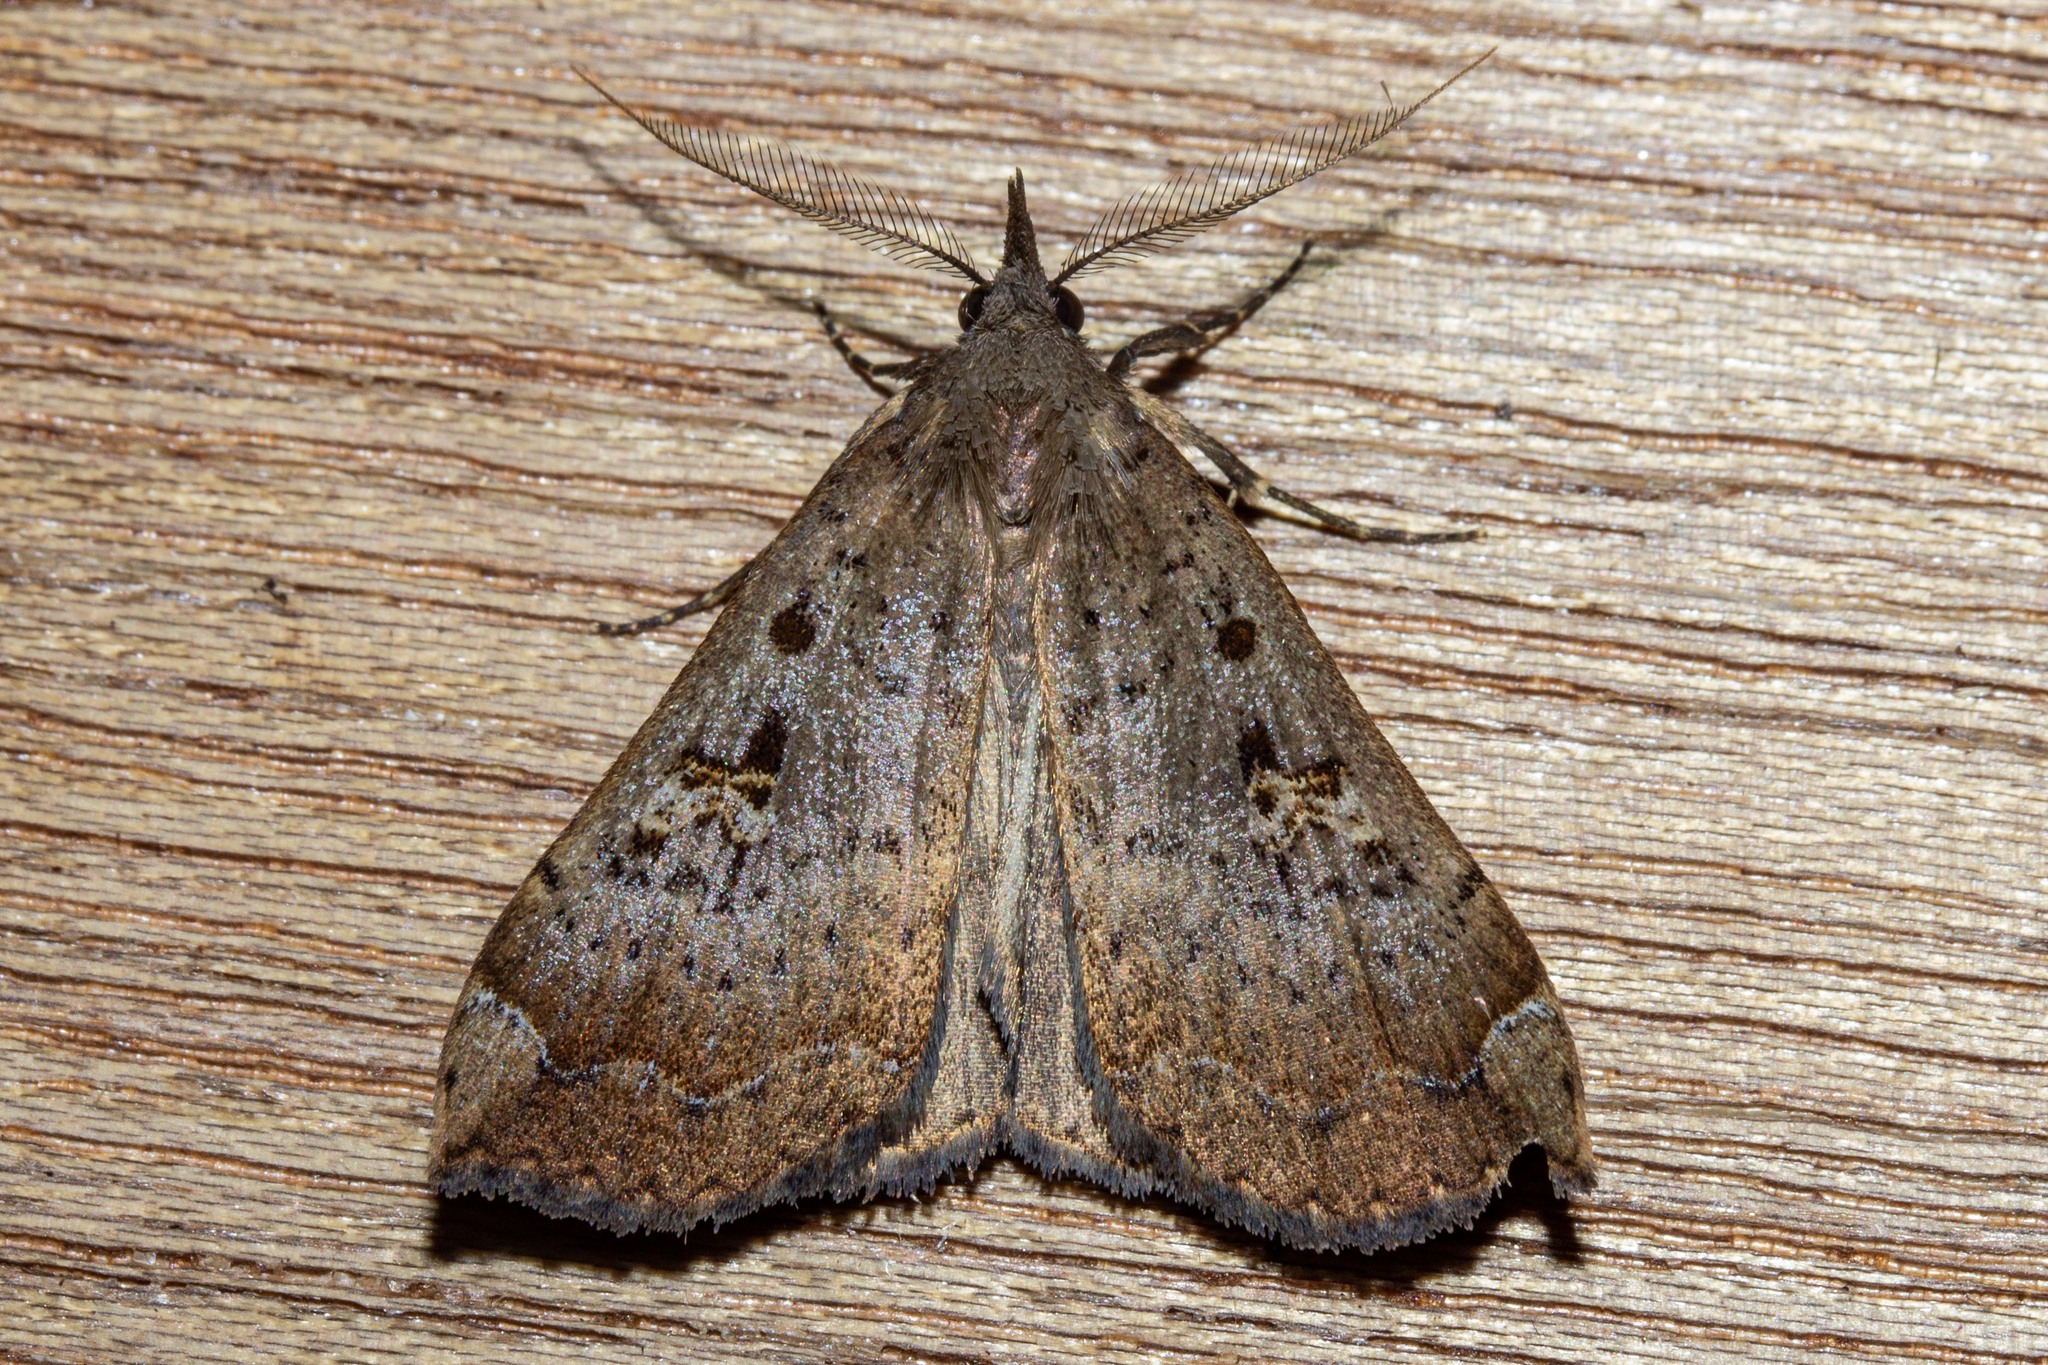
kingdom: Animalia
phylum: Arthropoda
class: Insecta
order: Lepidoptera
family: Erebidae
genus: Rhapsa
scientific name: Rhapsa scotosialis
